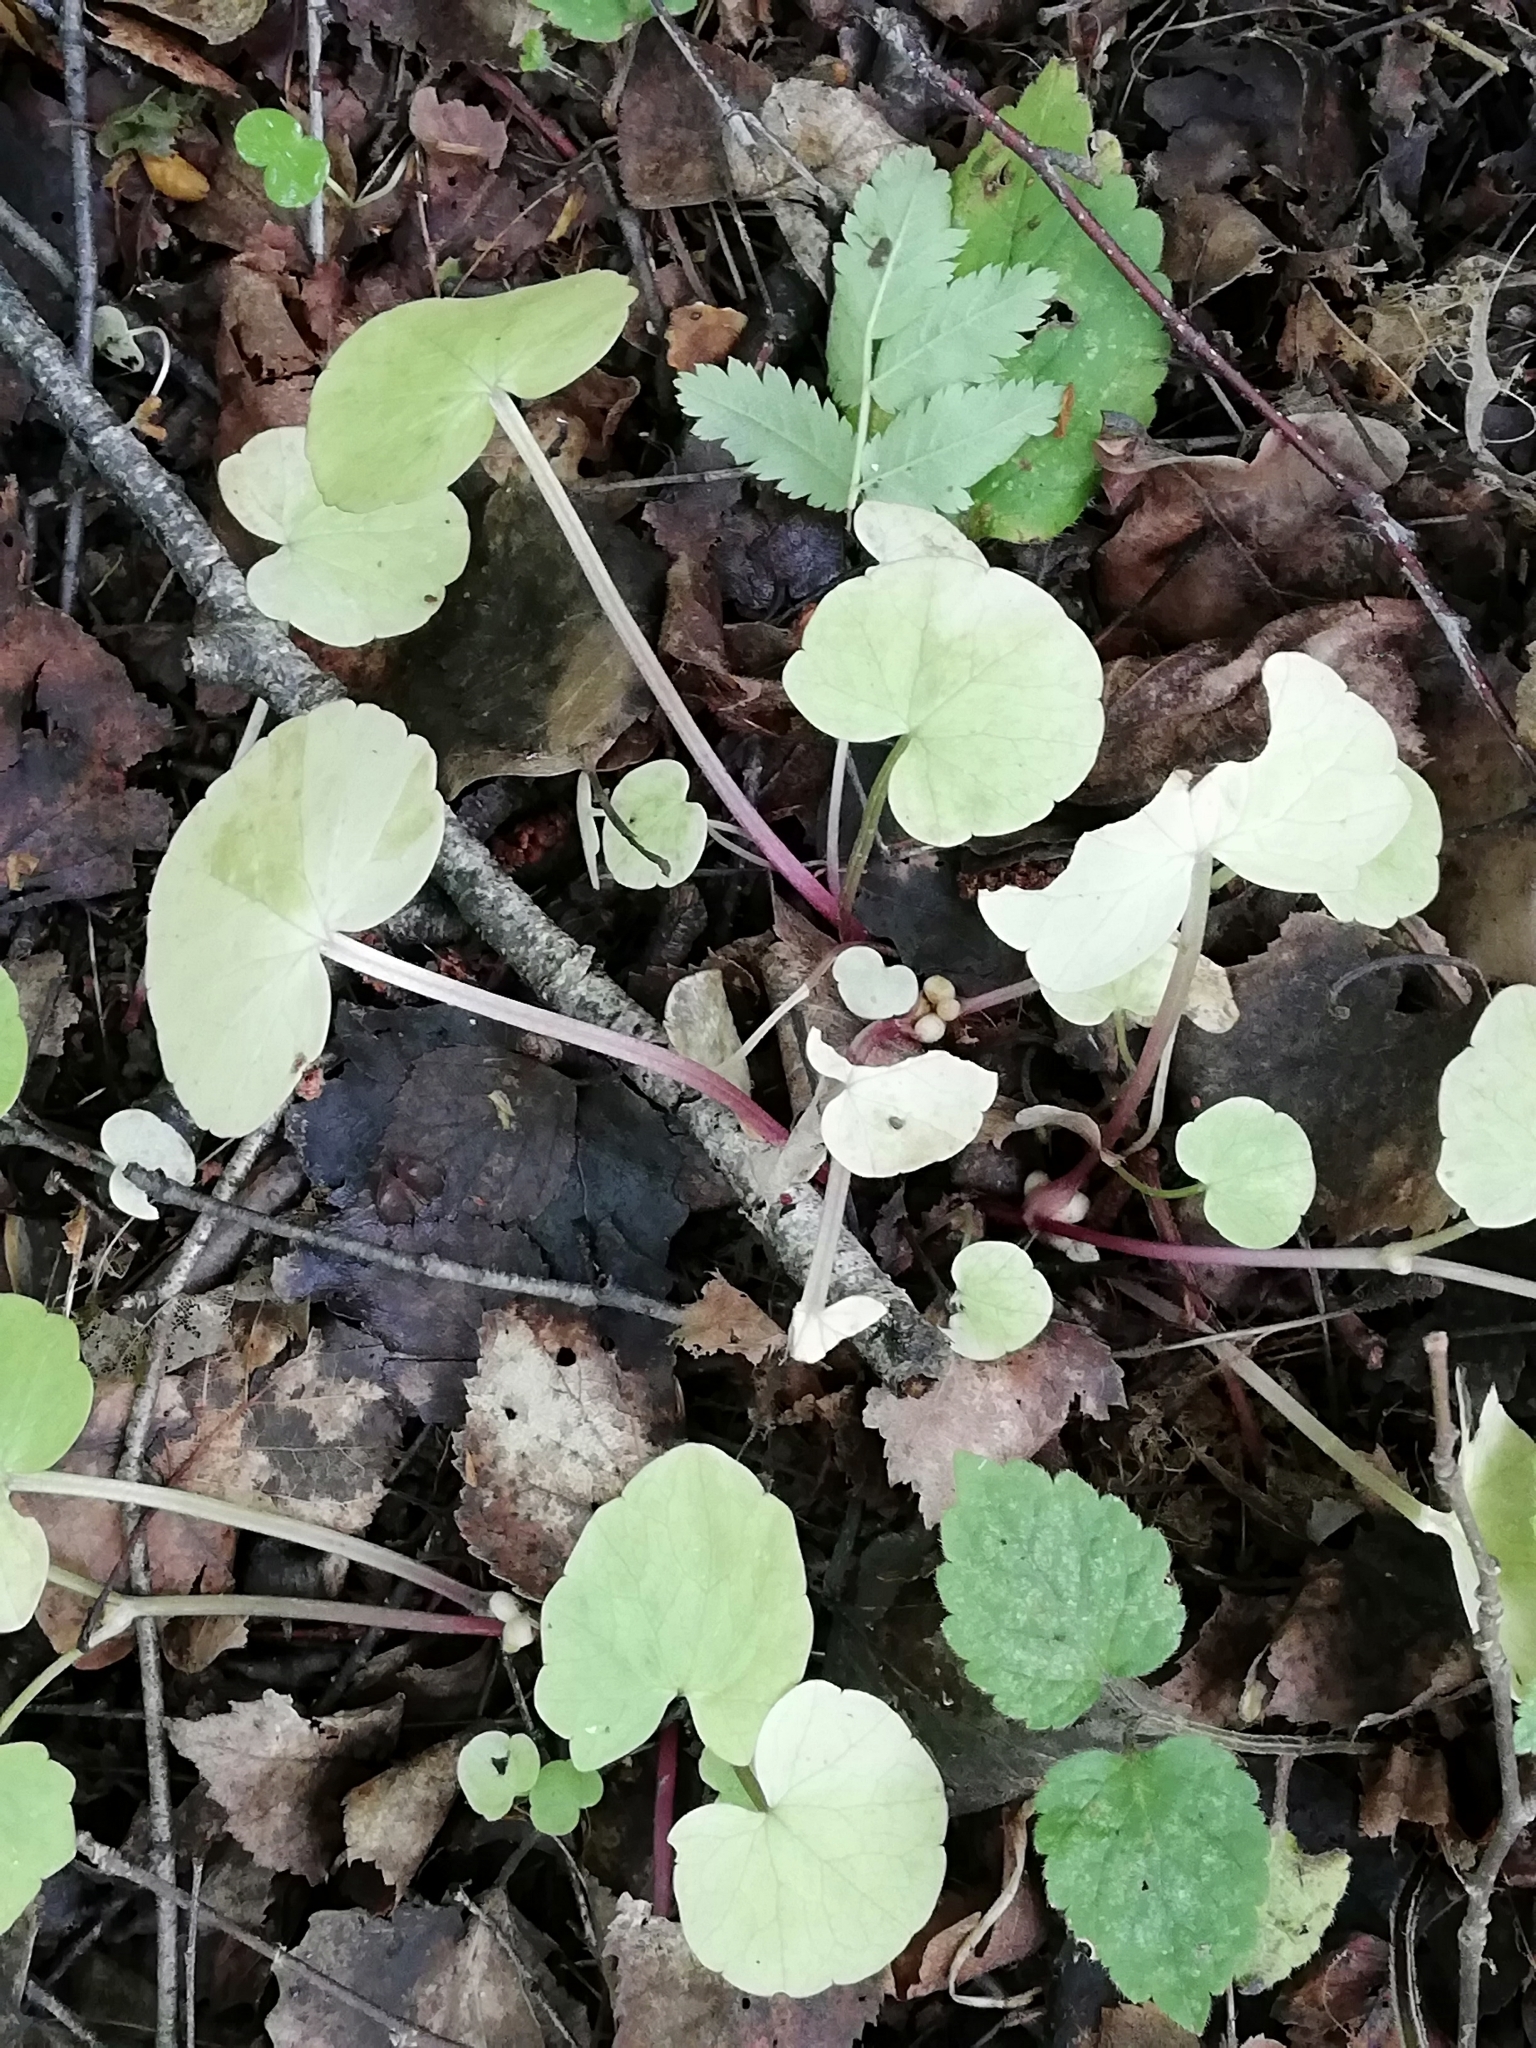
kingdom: Plantae
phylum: Tracheophyta
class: Magnoliopsida
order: Ranunculales
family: Ranunculaceae
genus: Ficaria
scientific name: Ficaria verna
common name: Lesser celandine
